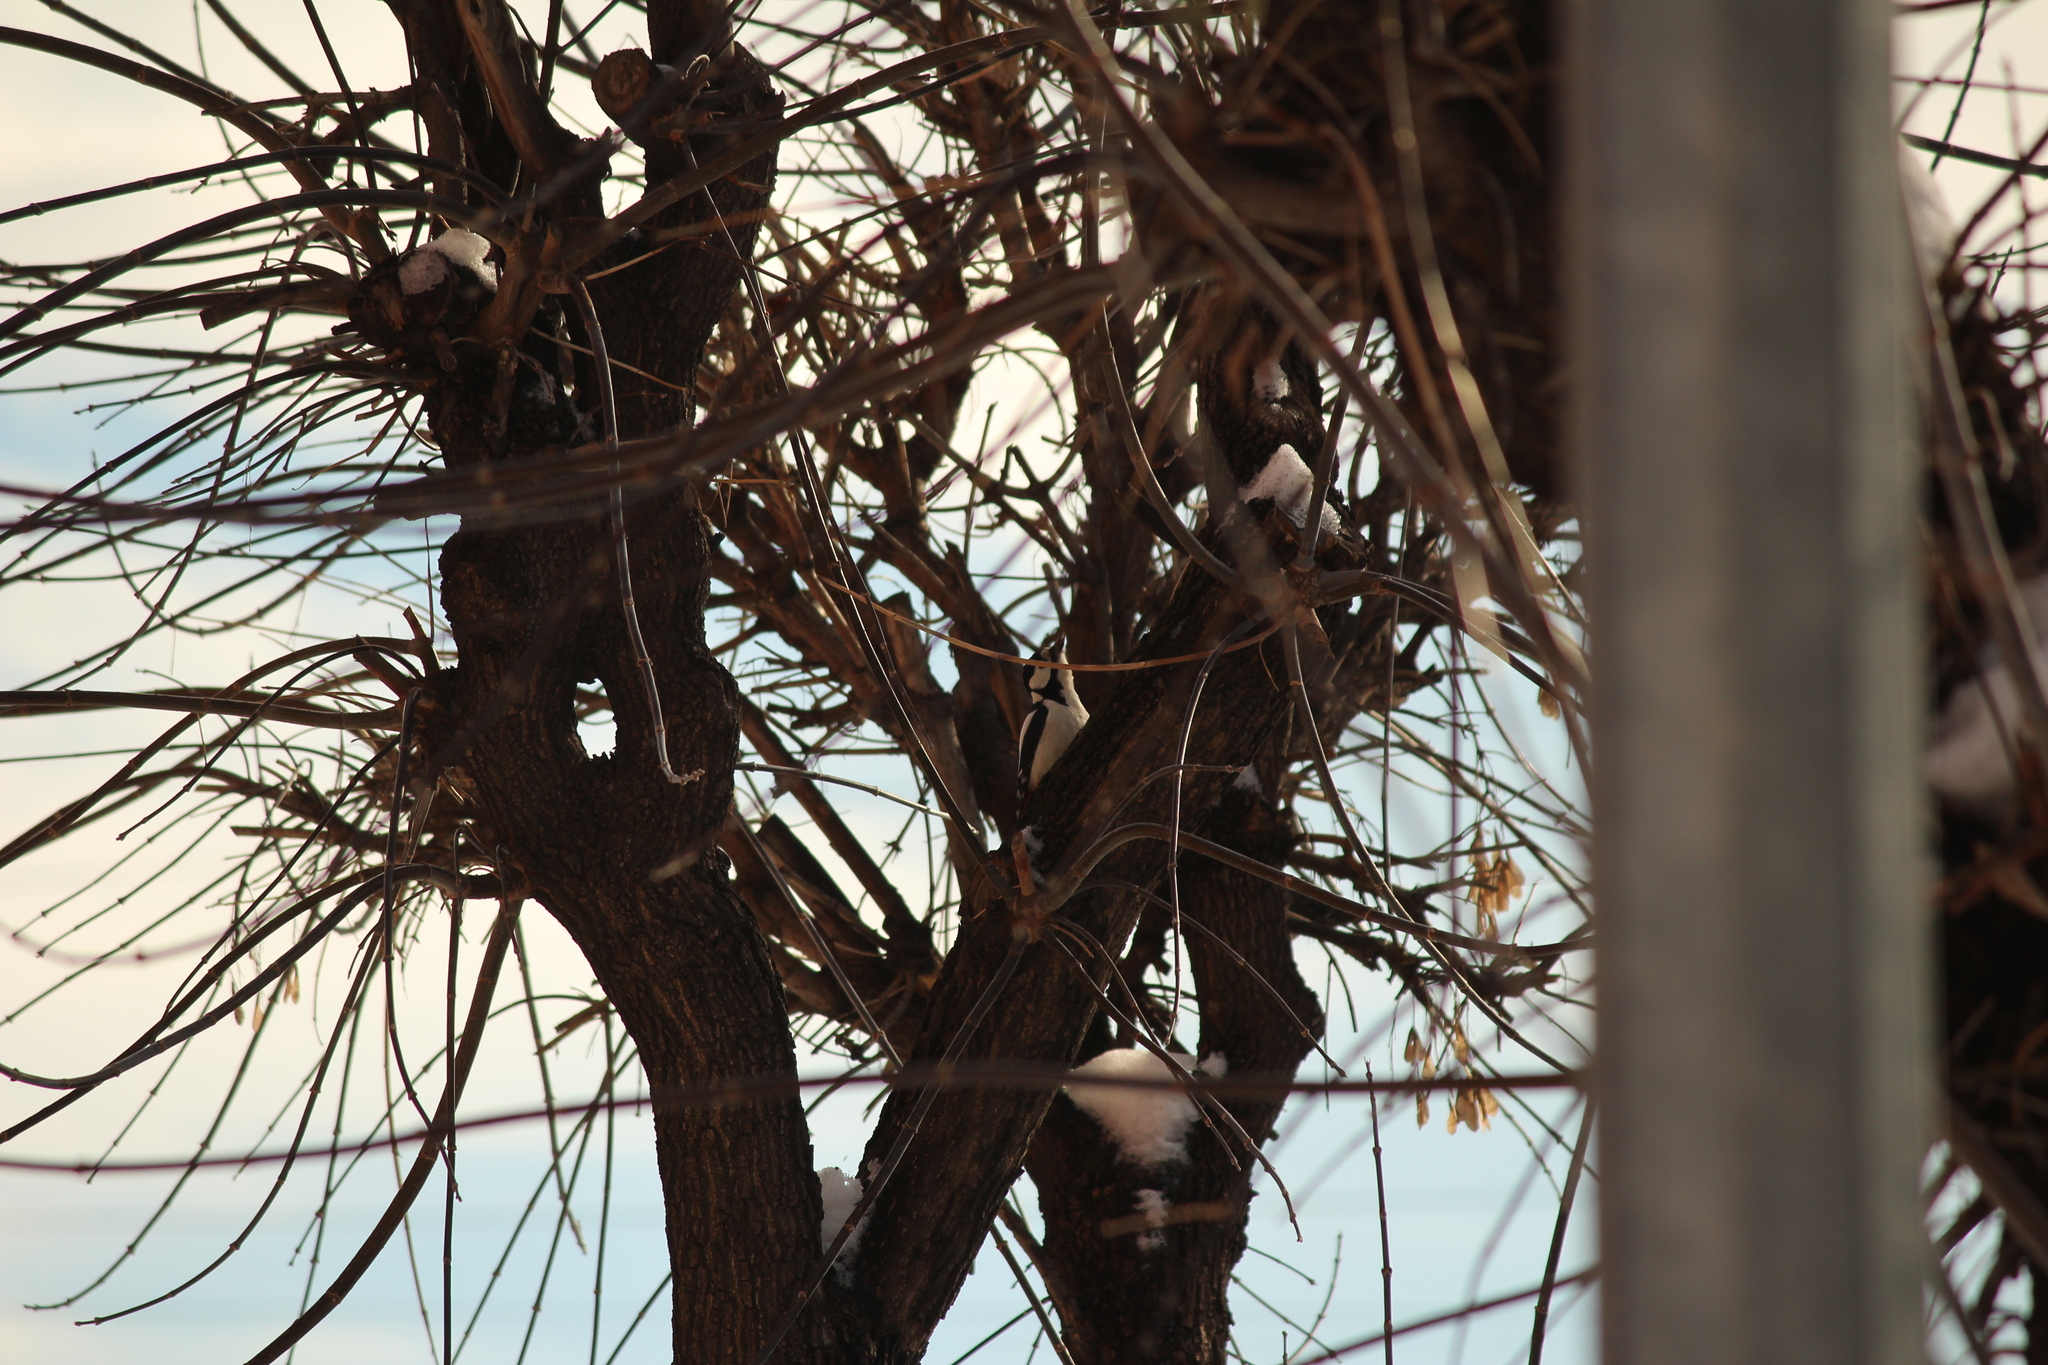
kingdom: Animalia
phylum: Chordata
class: Aves
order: Piciformes
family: Picidae
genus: Dendrocopos
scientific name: Dendrocopos major
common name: Great spotted woodpecker
